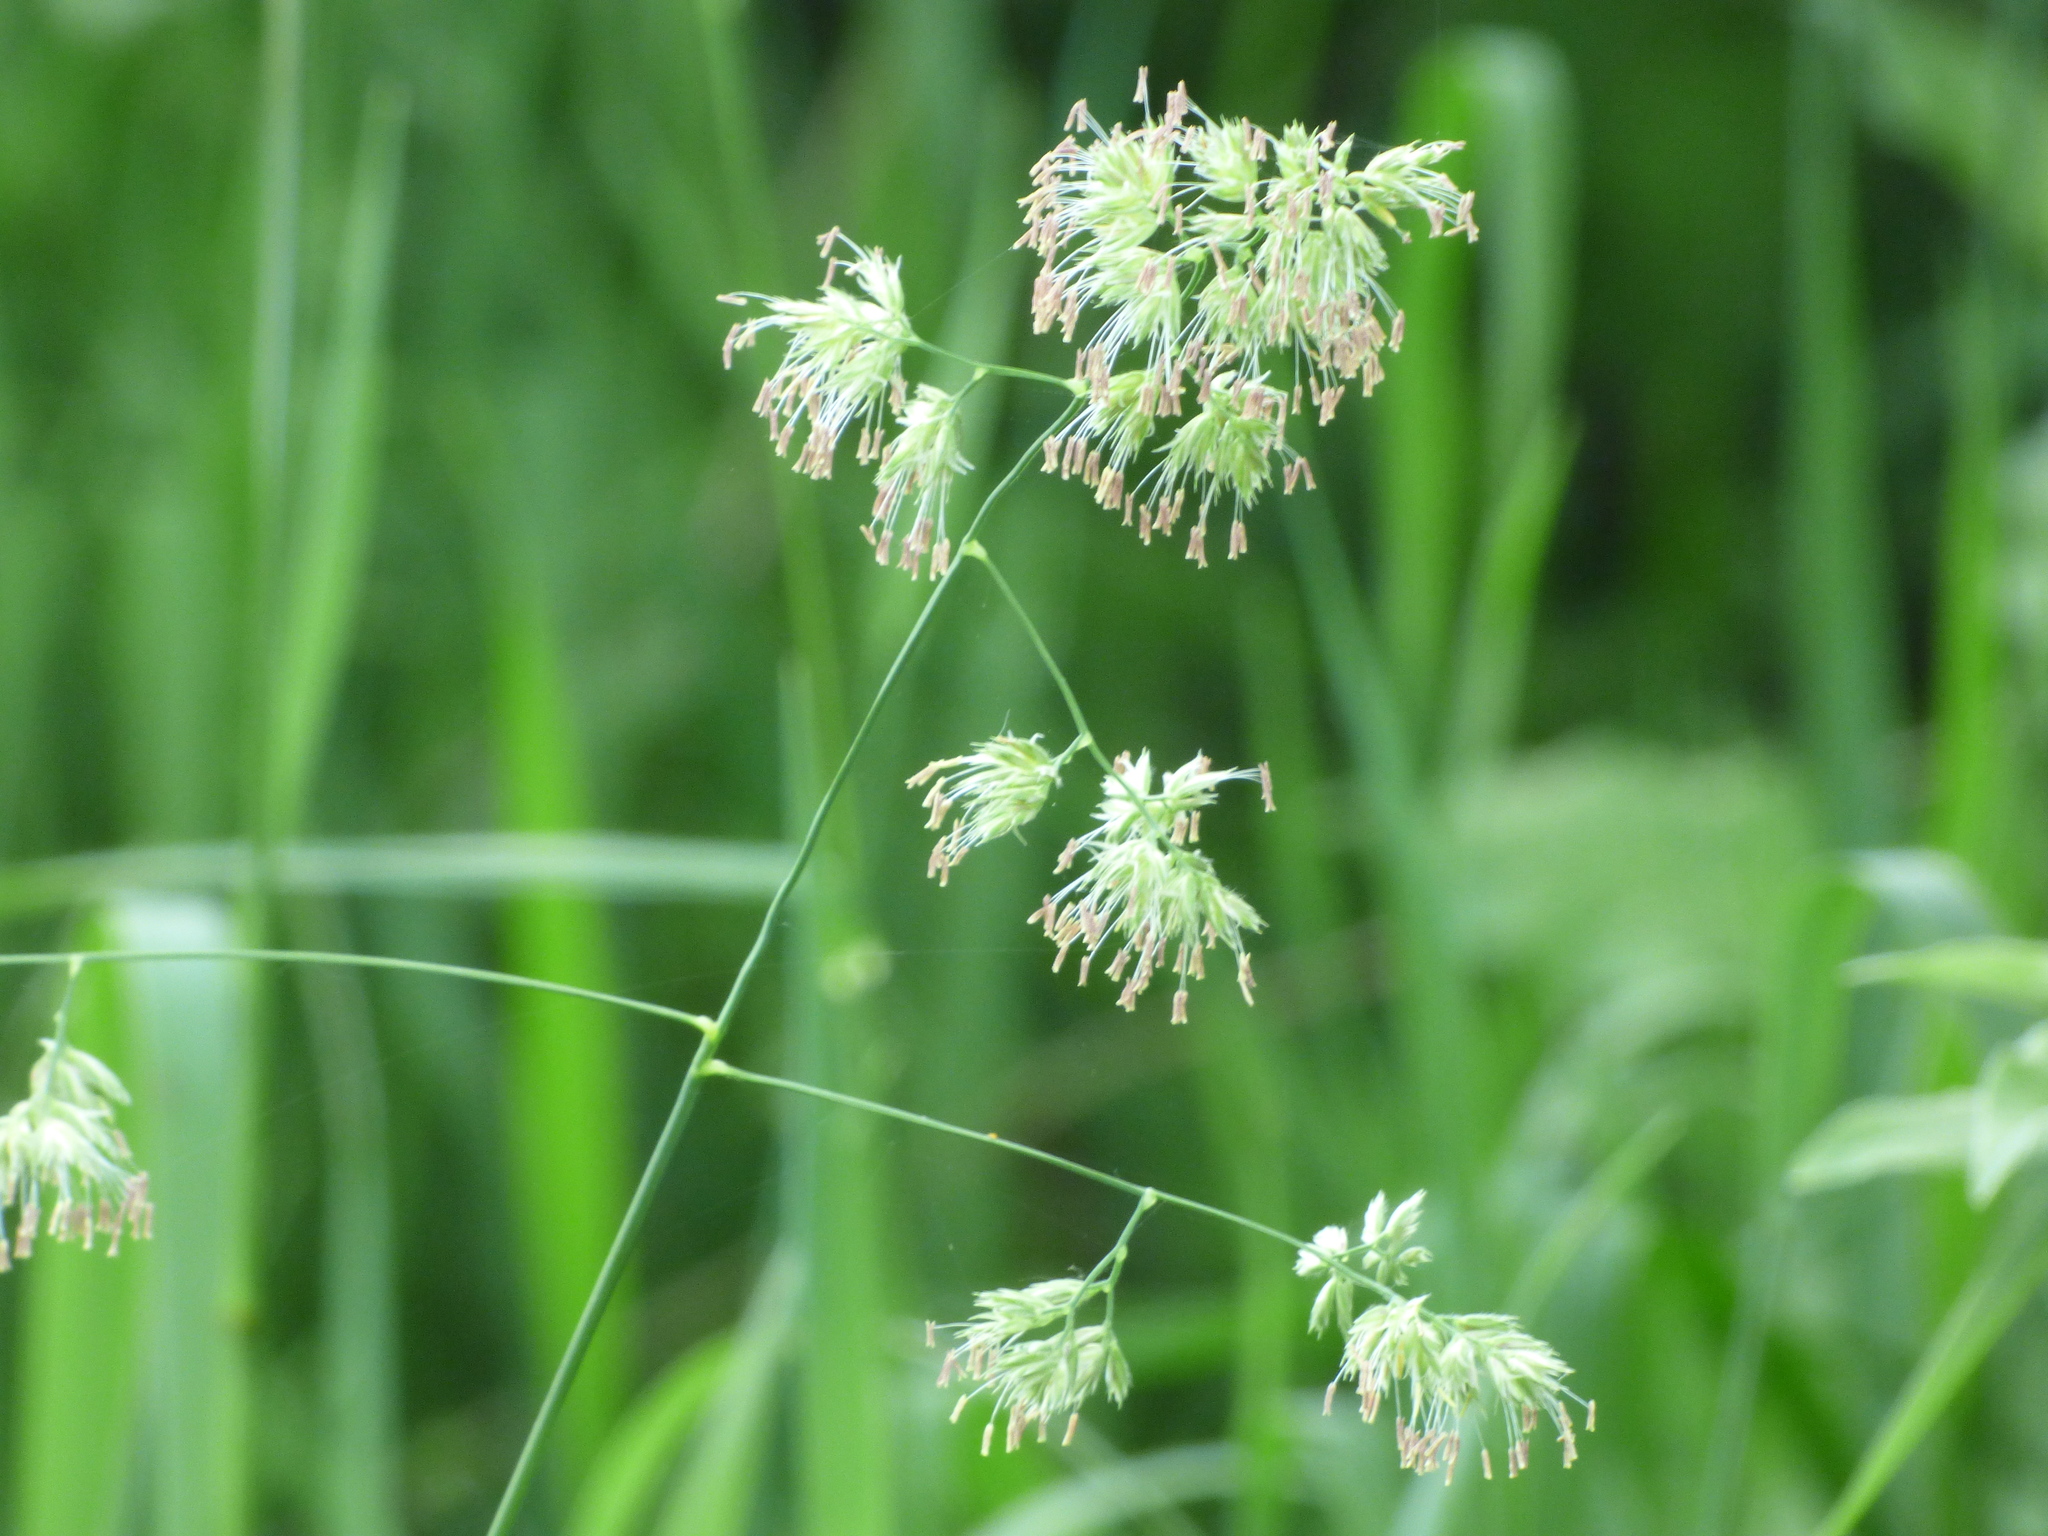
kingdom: Plantae
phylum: Tracheophyta
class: Liliopsida
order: Poales
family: Poaceae
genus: Dactylis
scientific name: Dactylis glomerata
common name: Orchardgrass
